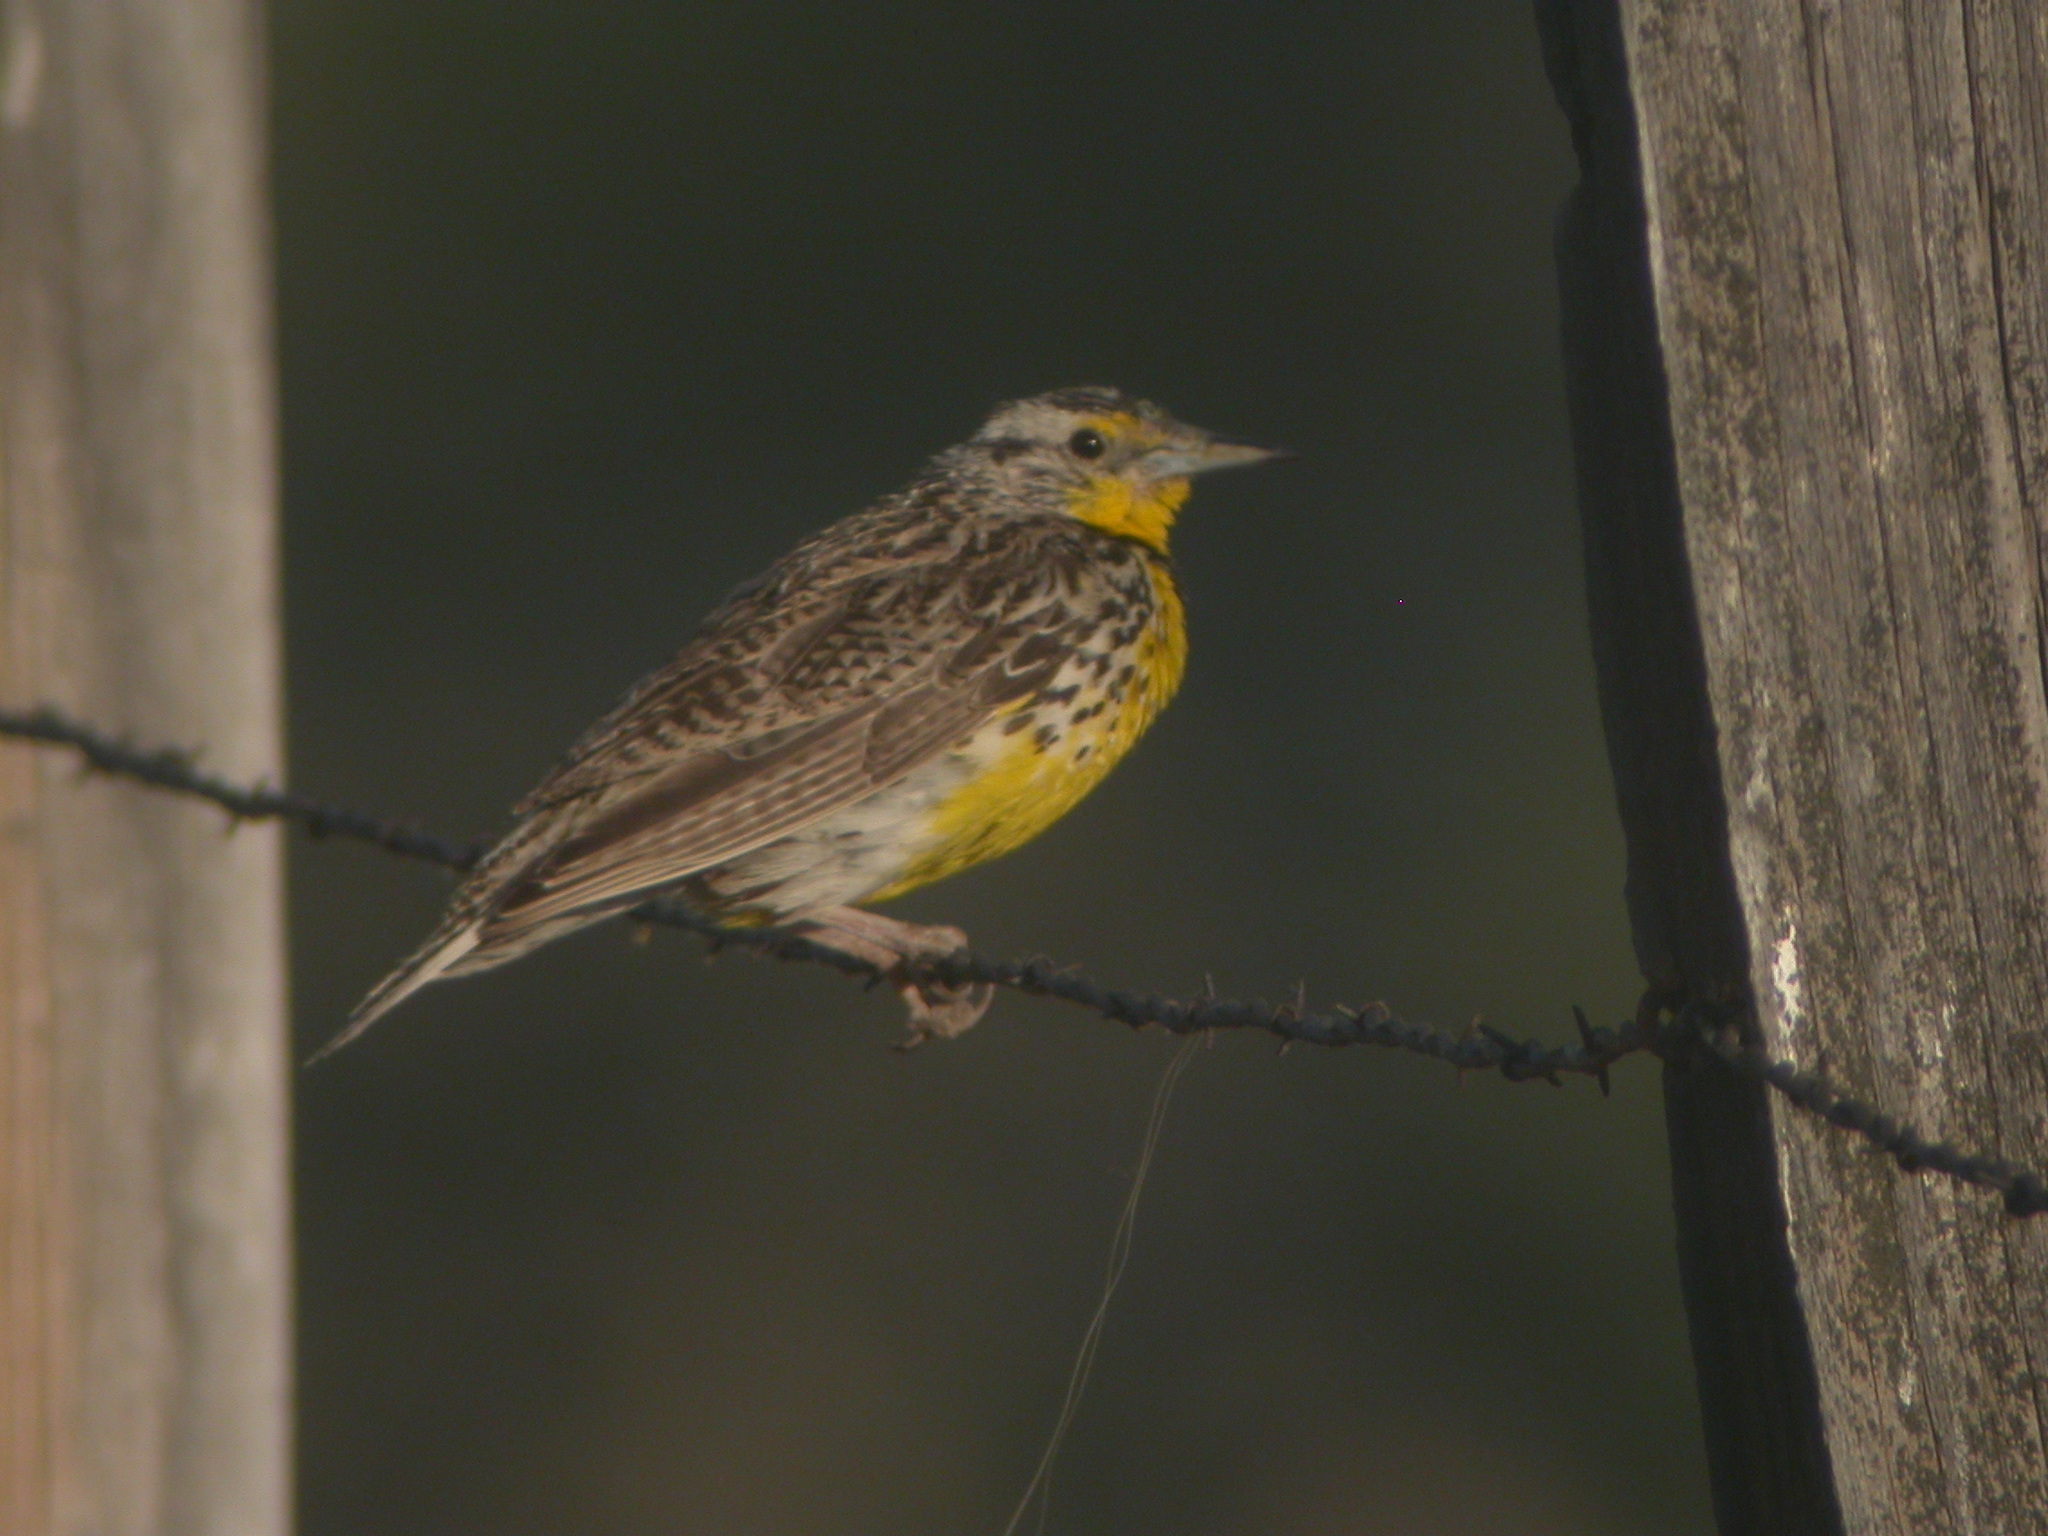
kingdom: Animalia
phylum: Chordata
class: Aves
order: Passeriformes
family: Icteridae
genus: Sturnella
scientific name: Sturnella neglecta
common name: Western meadowlark
